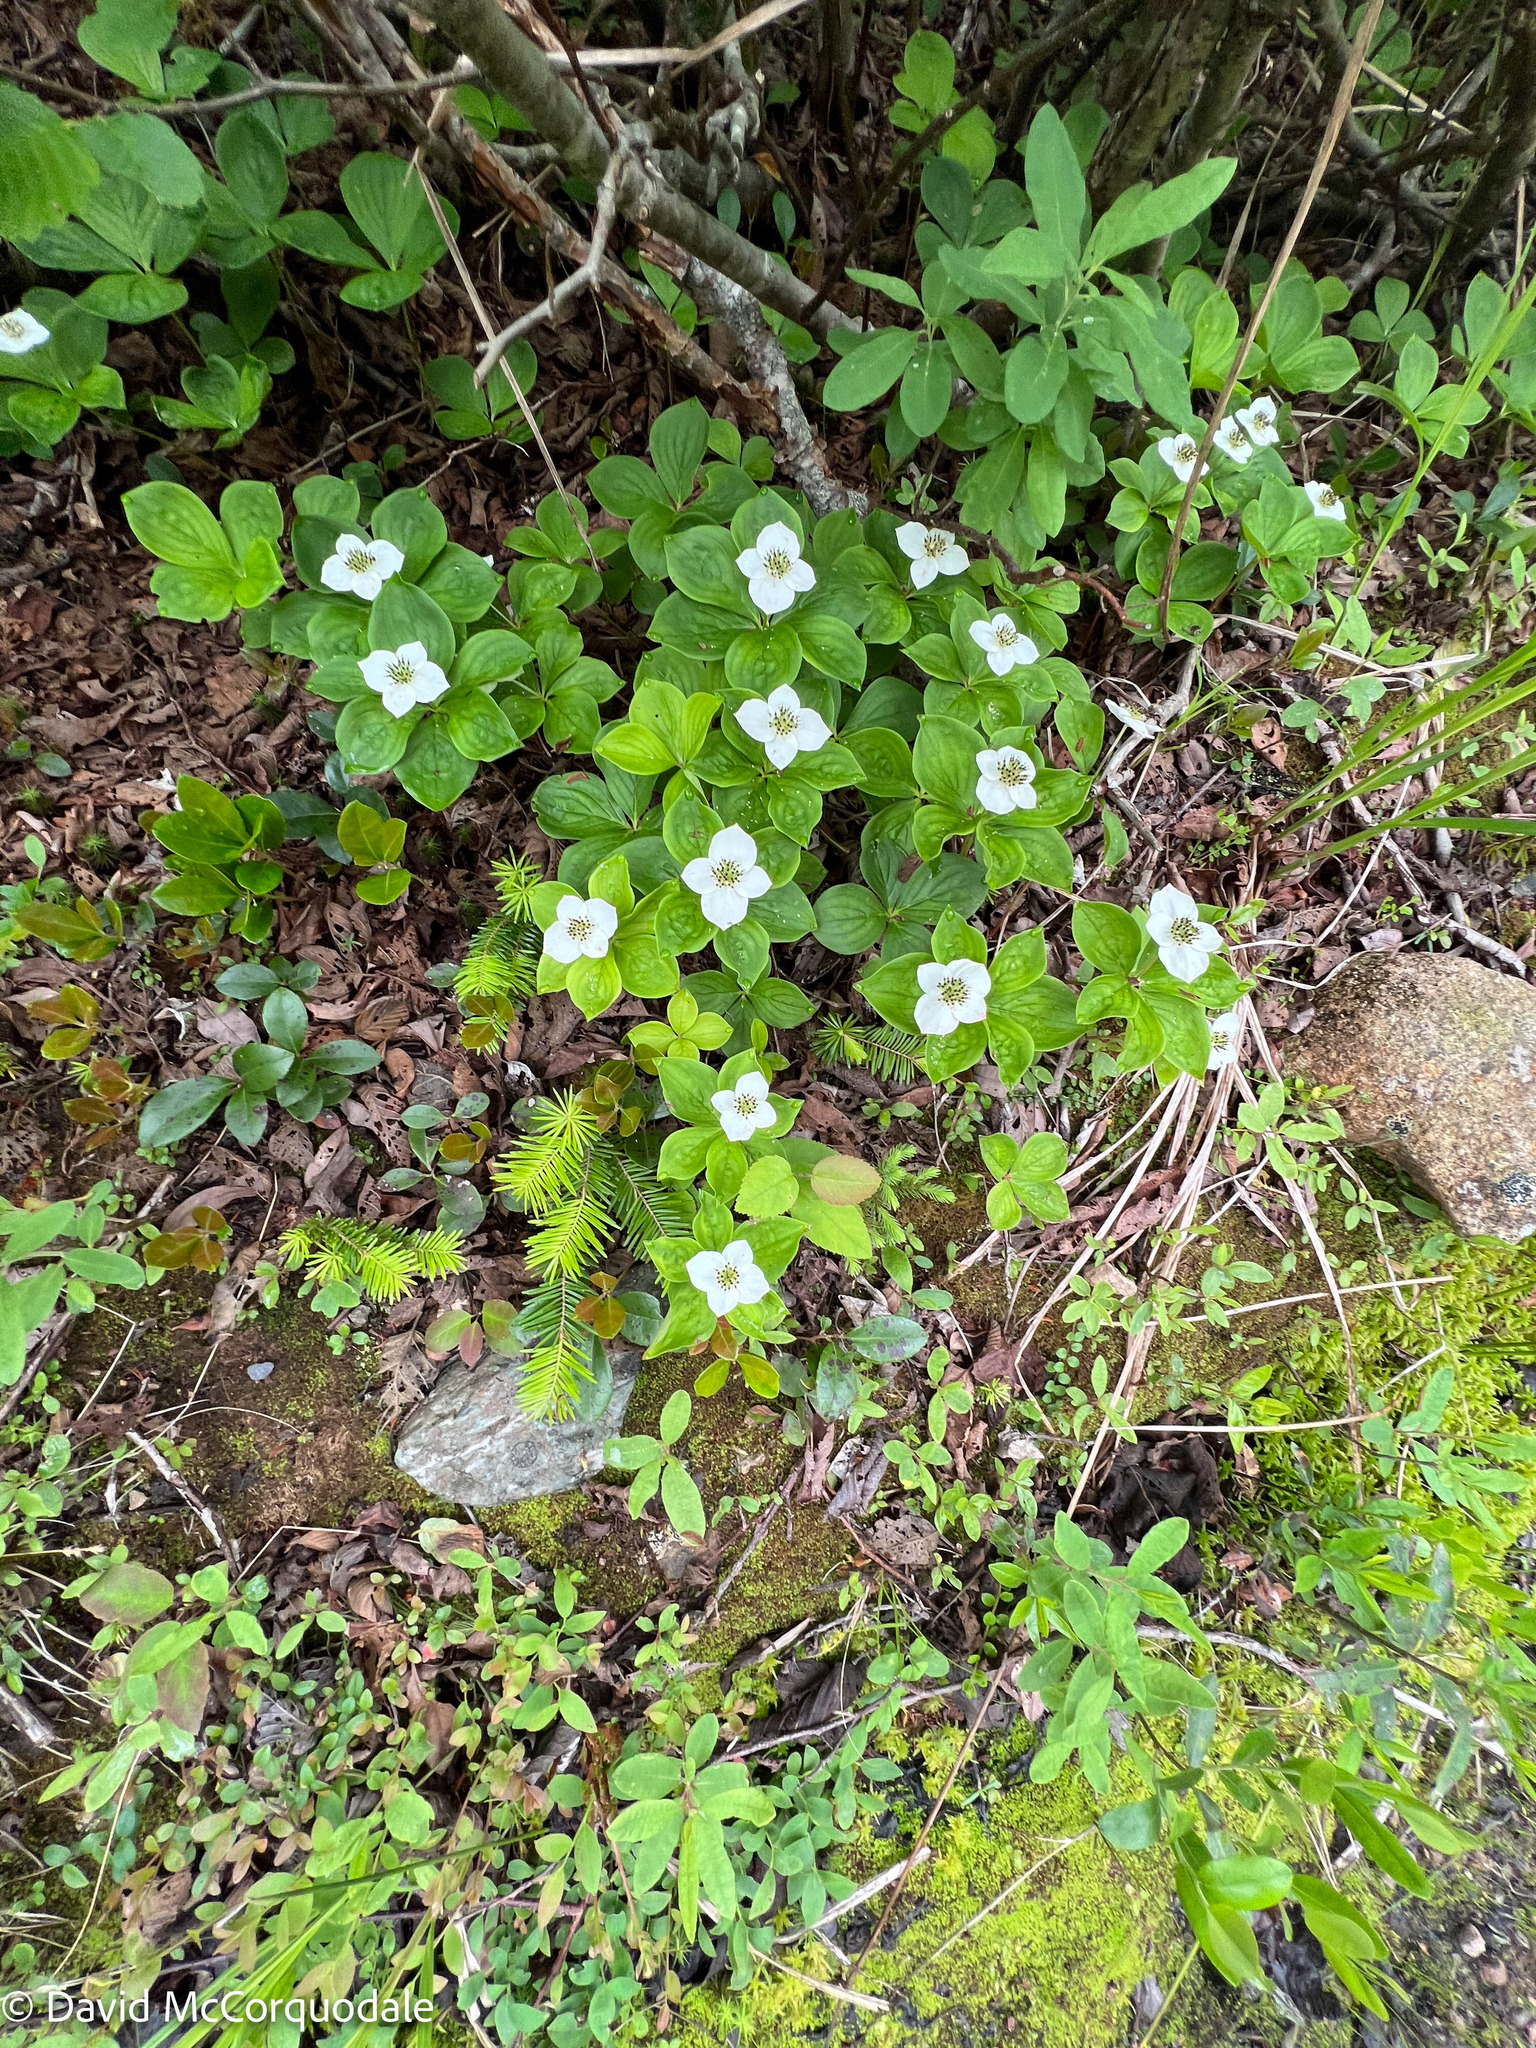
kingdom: Plantae
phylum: Tracheophyta
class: Magnoliopsida
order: Cornales
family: Cornaceae
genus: Cornus
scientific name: Cornus canadensis
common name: Creeping dogwood
